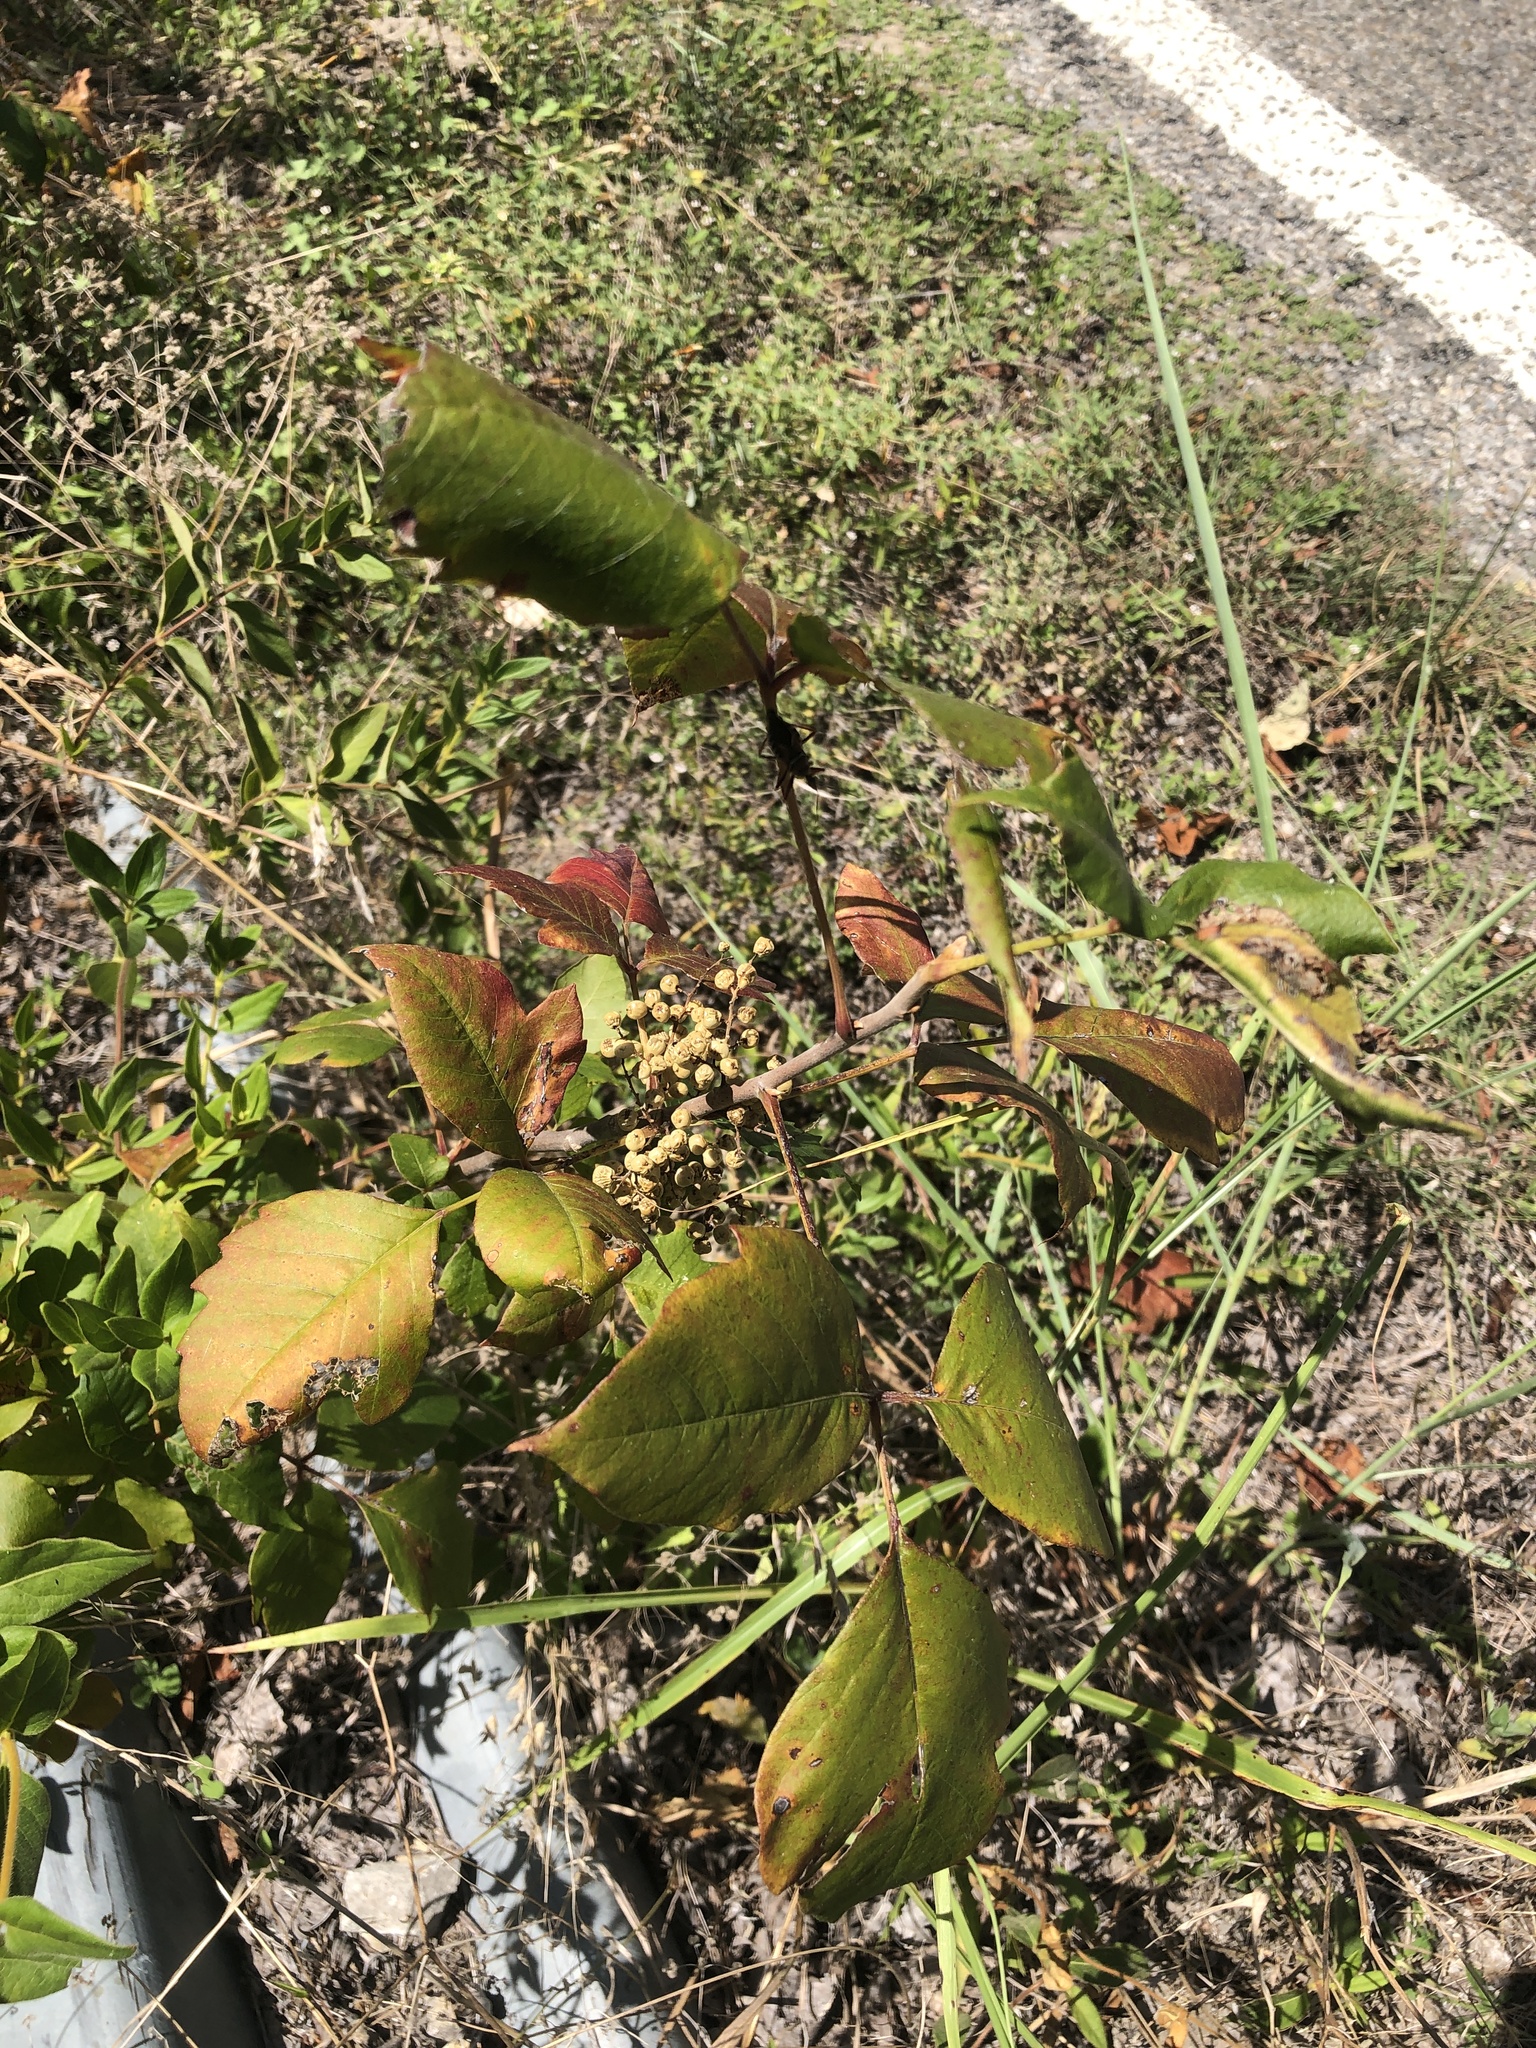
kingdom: Plantae
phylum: Tracheophyta
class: Magnoliopsida
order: Sapindales
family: Anacardiaceae
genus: Toxicodendron
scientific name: Toxicodendron radicans
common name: Poison ivy
